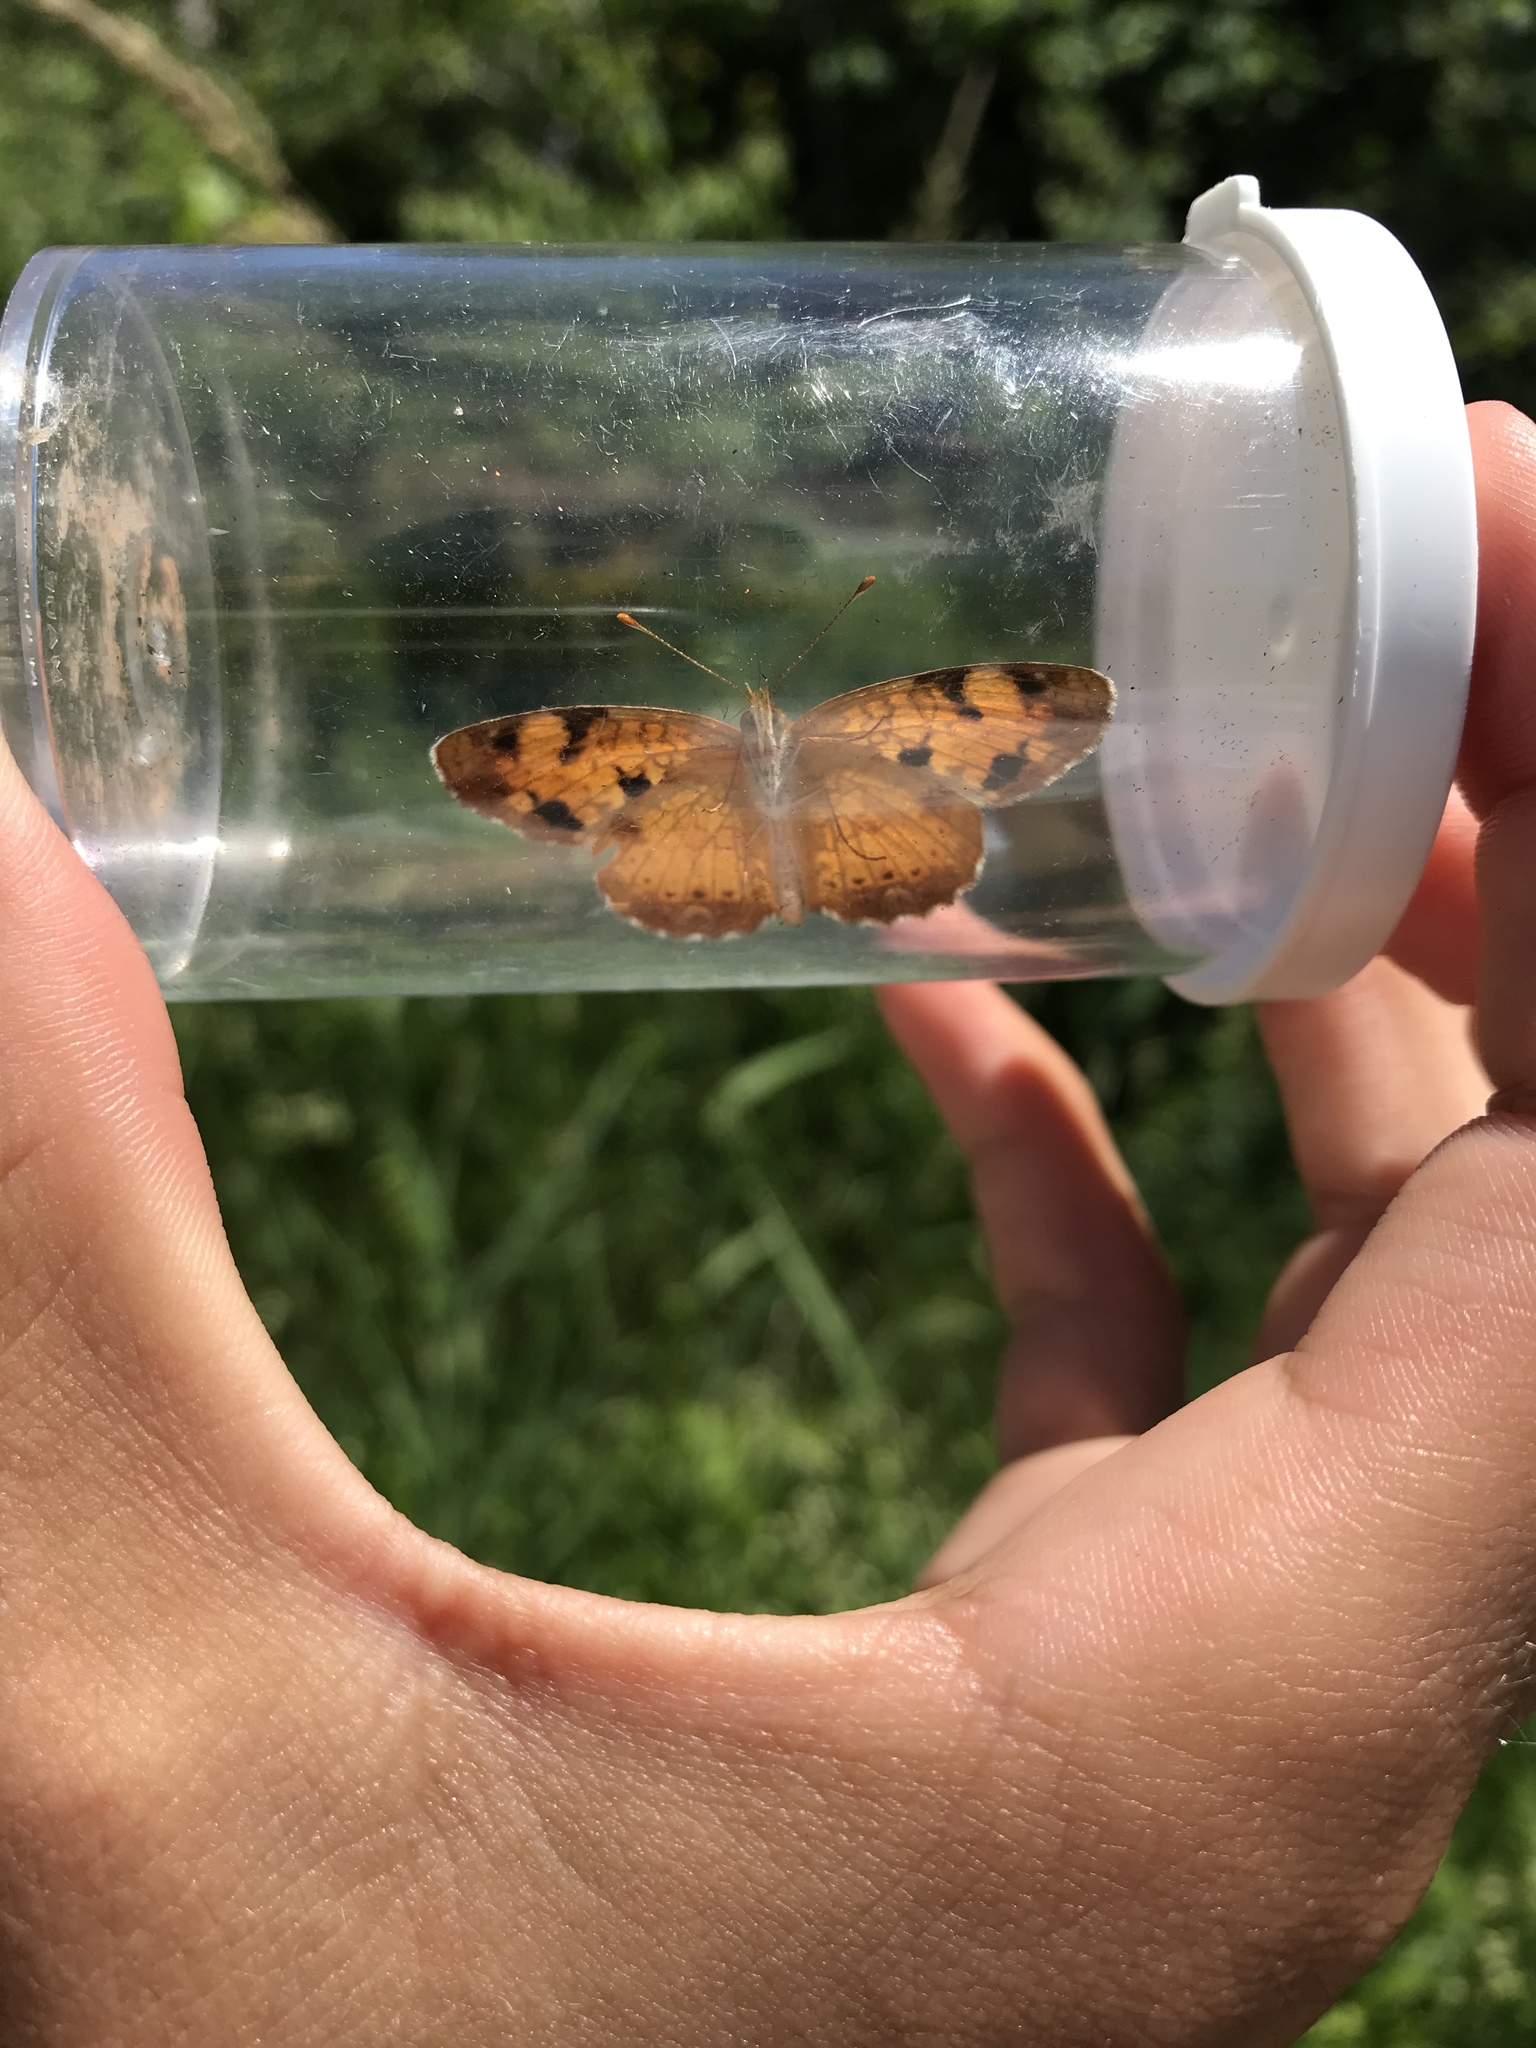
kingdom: Animalia
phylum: Arthropoda
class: Insecta
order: Lepidoptera
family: Nymphalidae
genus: Phyciodes
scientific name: Phyciodes tharos
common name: Pearl crescent
